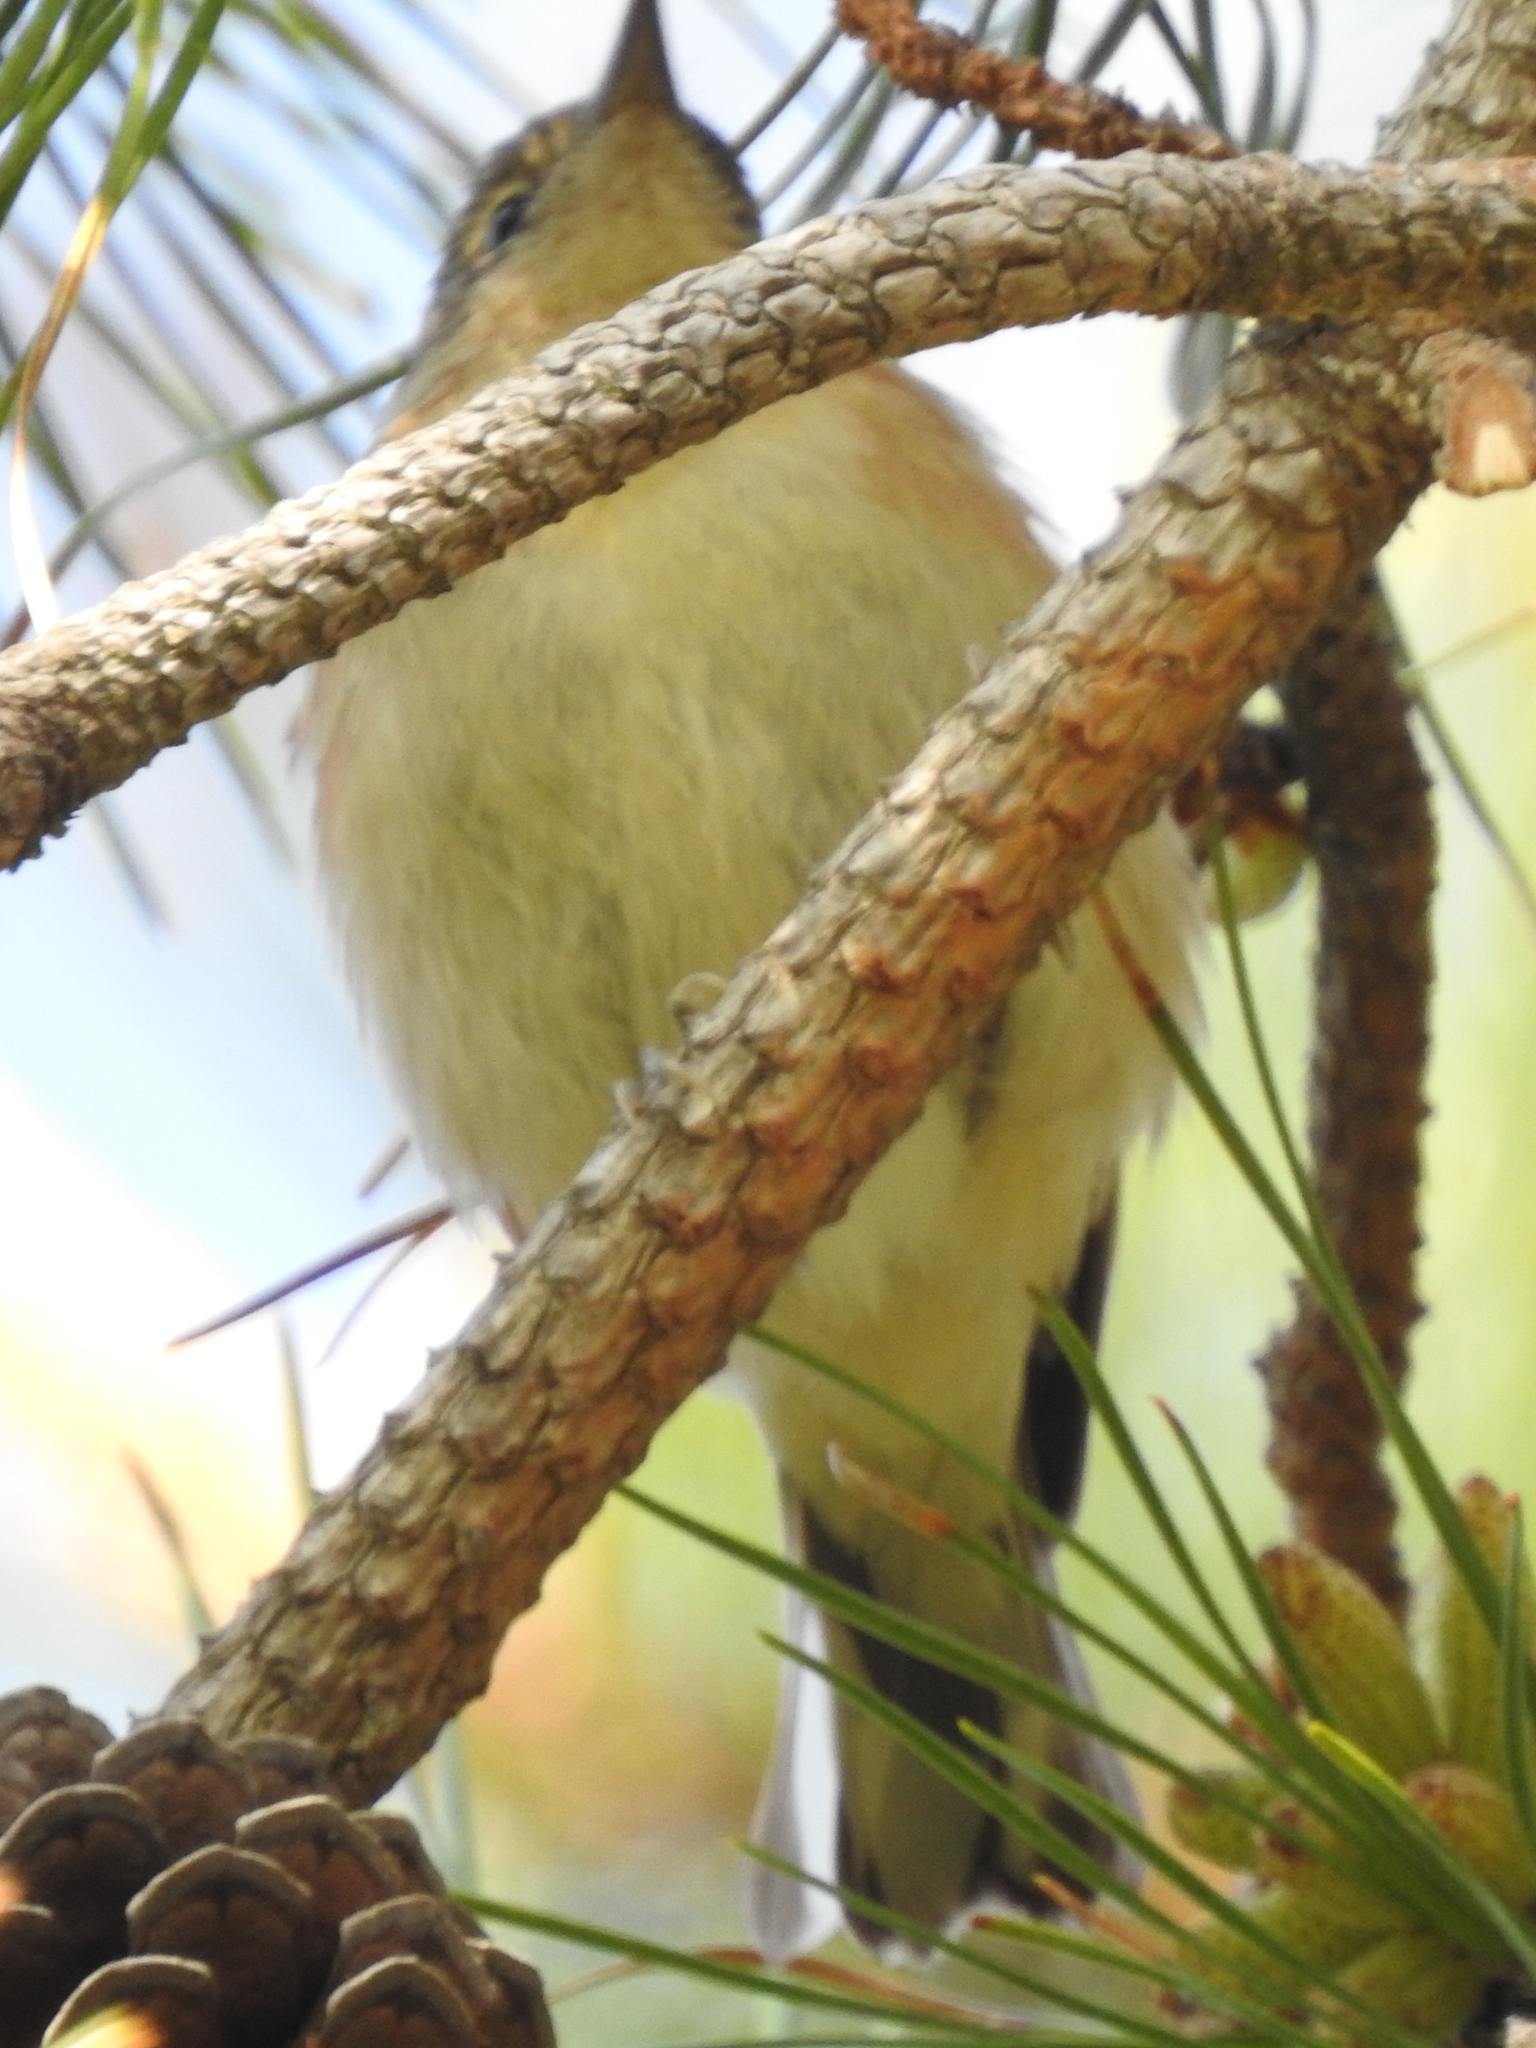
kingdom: Animalia
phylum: Chordata
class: Aves
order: Passeriformes
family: Parulidae
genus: Setophaga
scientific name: Setophaga castanea
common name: Bay-breasted warbler
